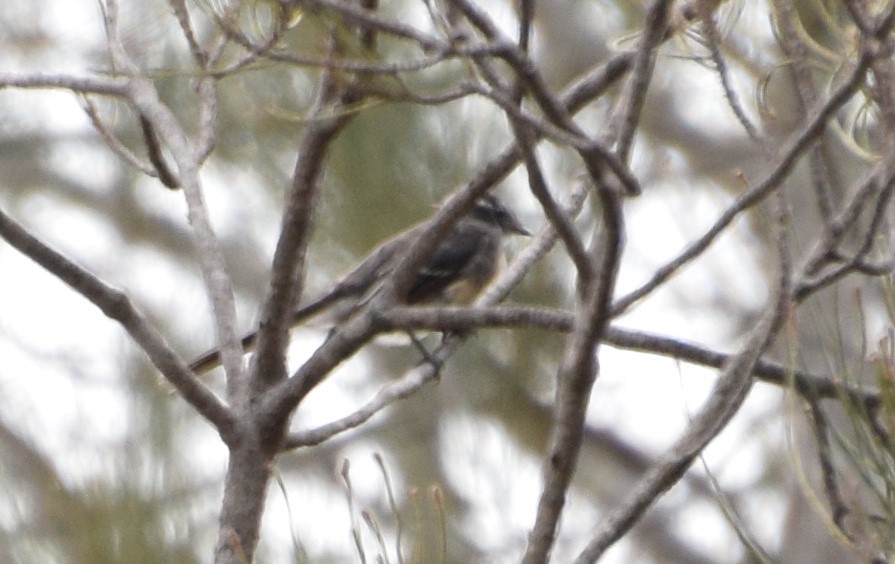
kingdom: Animalia
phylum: Chordata
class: Aves
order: Passeriformes
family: Rhipiduridae
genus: Rhipidura
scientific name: Rhipidura albiscapa
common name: Grey fantail
